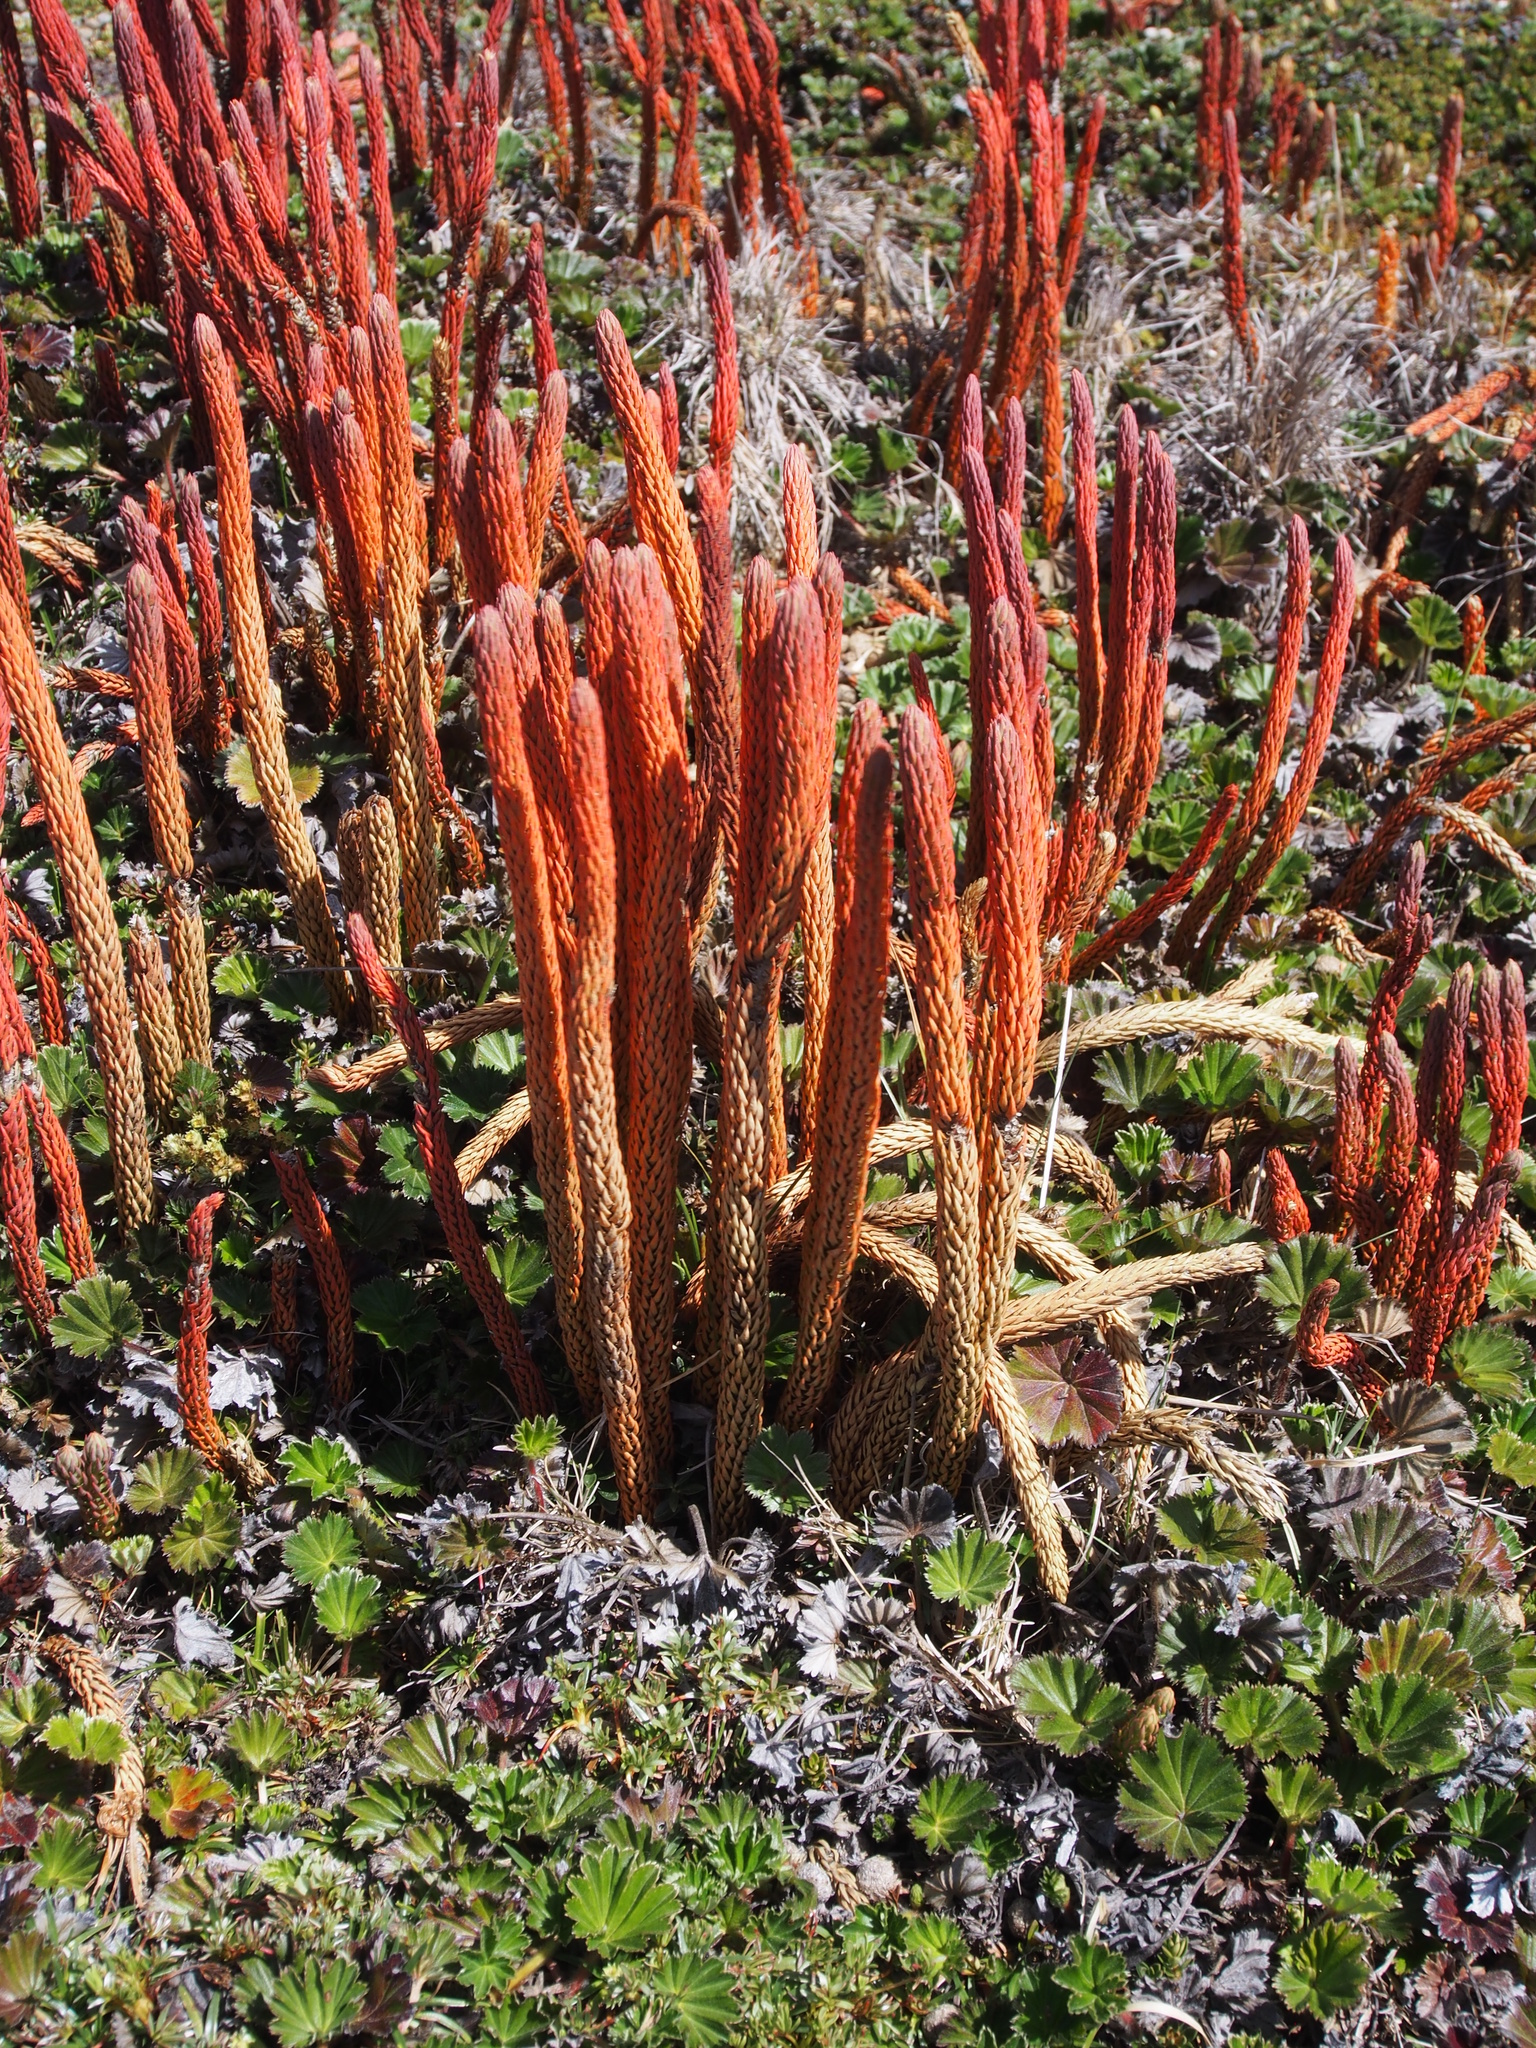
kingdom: Plantae
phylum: Tracheophyta
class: Lycopodiopsida
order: Lycopodiales
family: Lycopodiaceae
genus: Phlegmariurus
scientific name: Phlegmariurus hypogaeus
